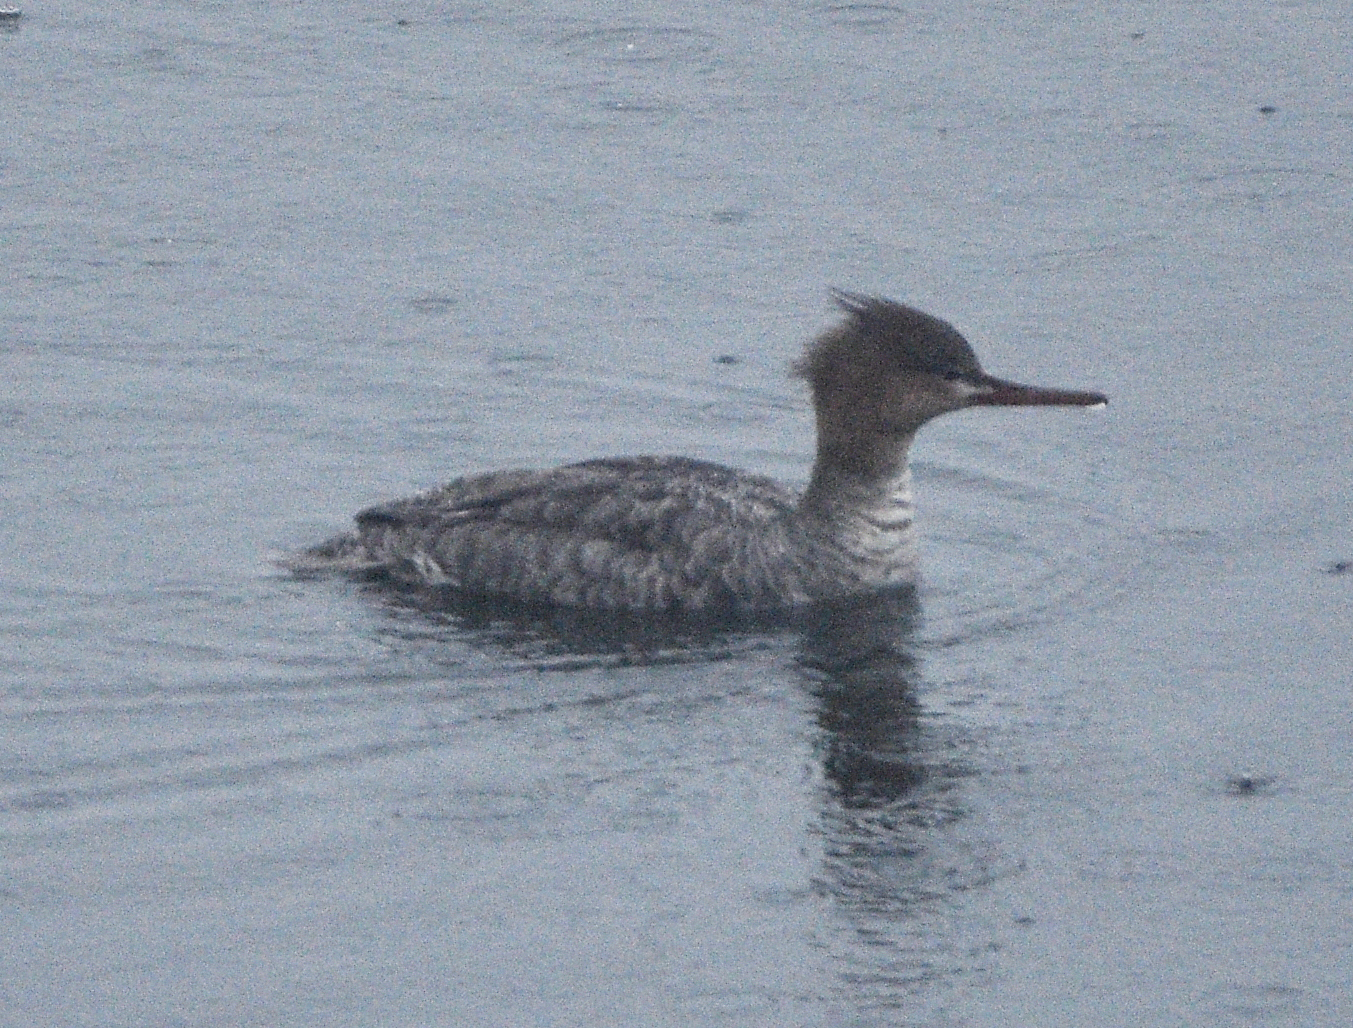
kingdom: Animalia
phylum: Chordata
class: Aves
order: Anseriformes
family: Anatidae
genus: Mergus
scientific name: Mergus serrator
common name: Red-breasted merganser
